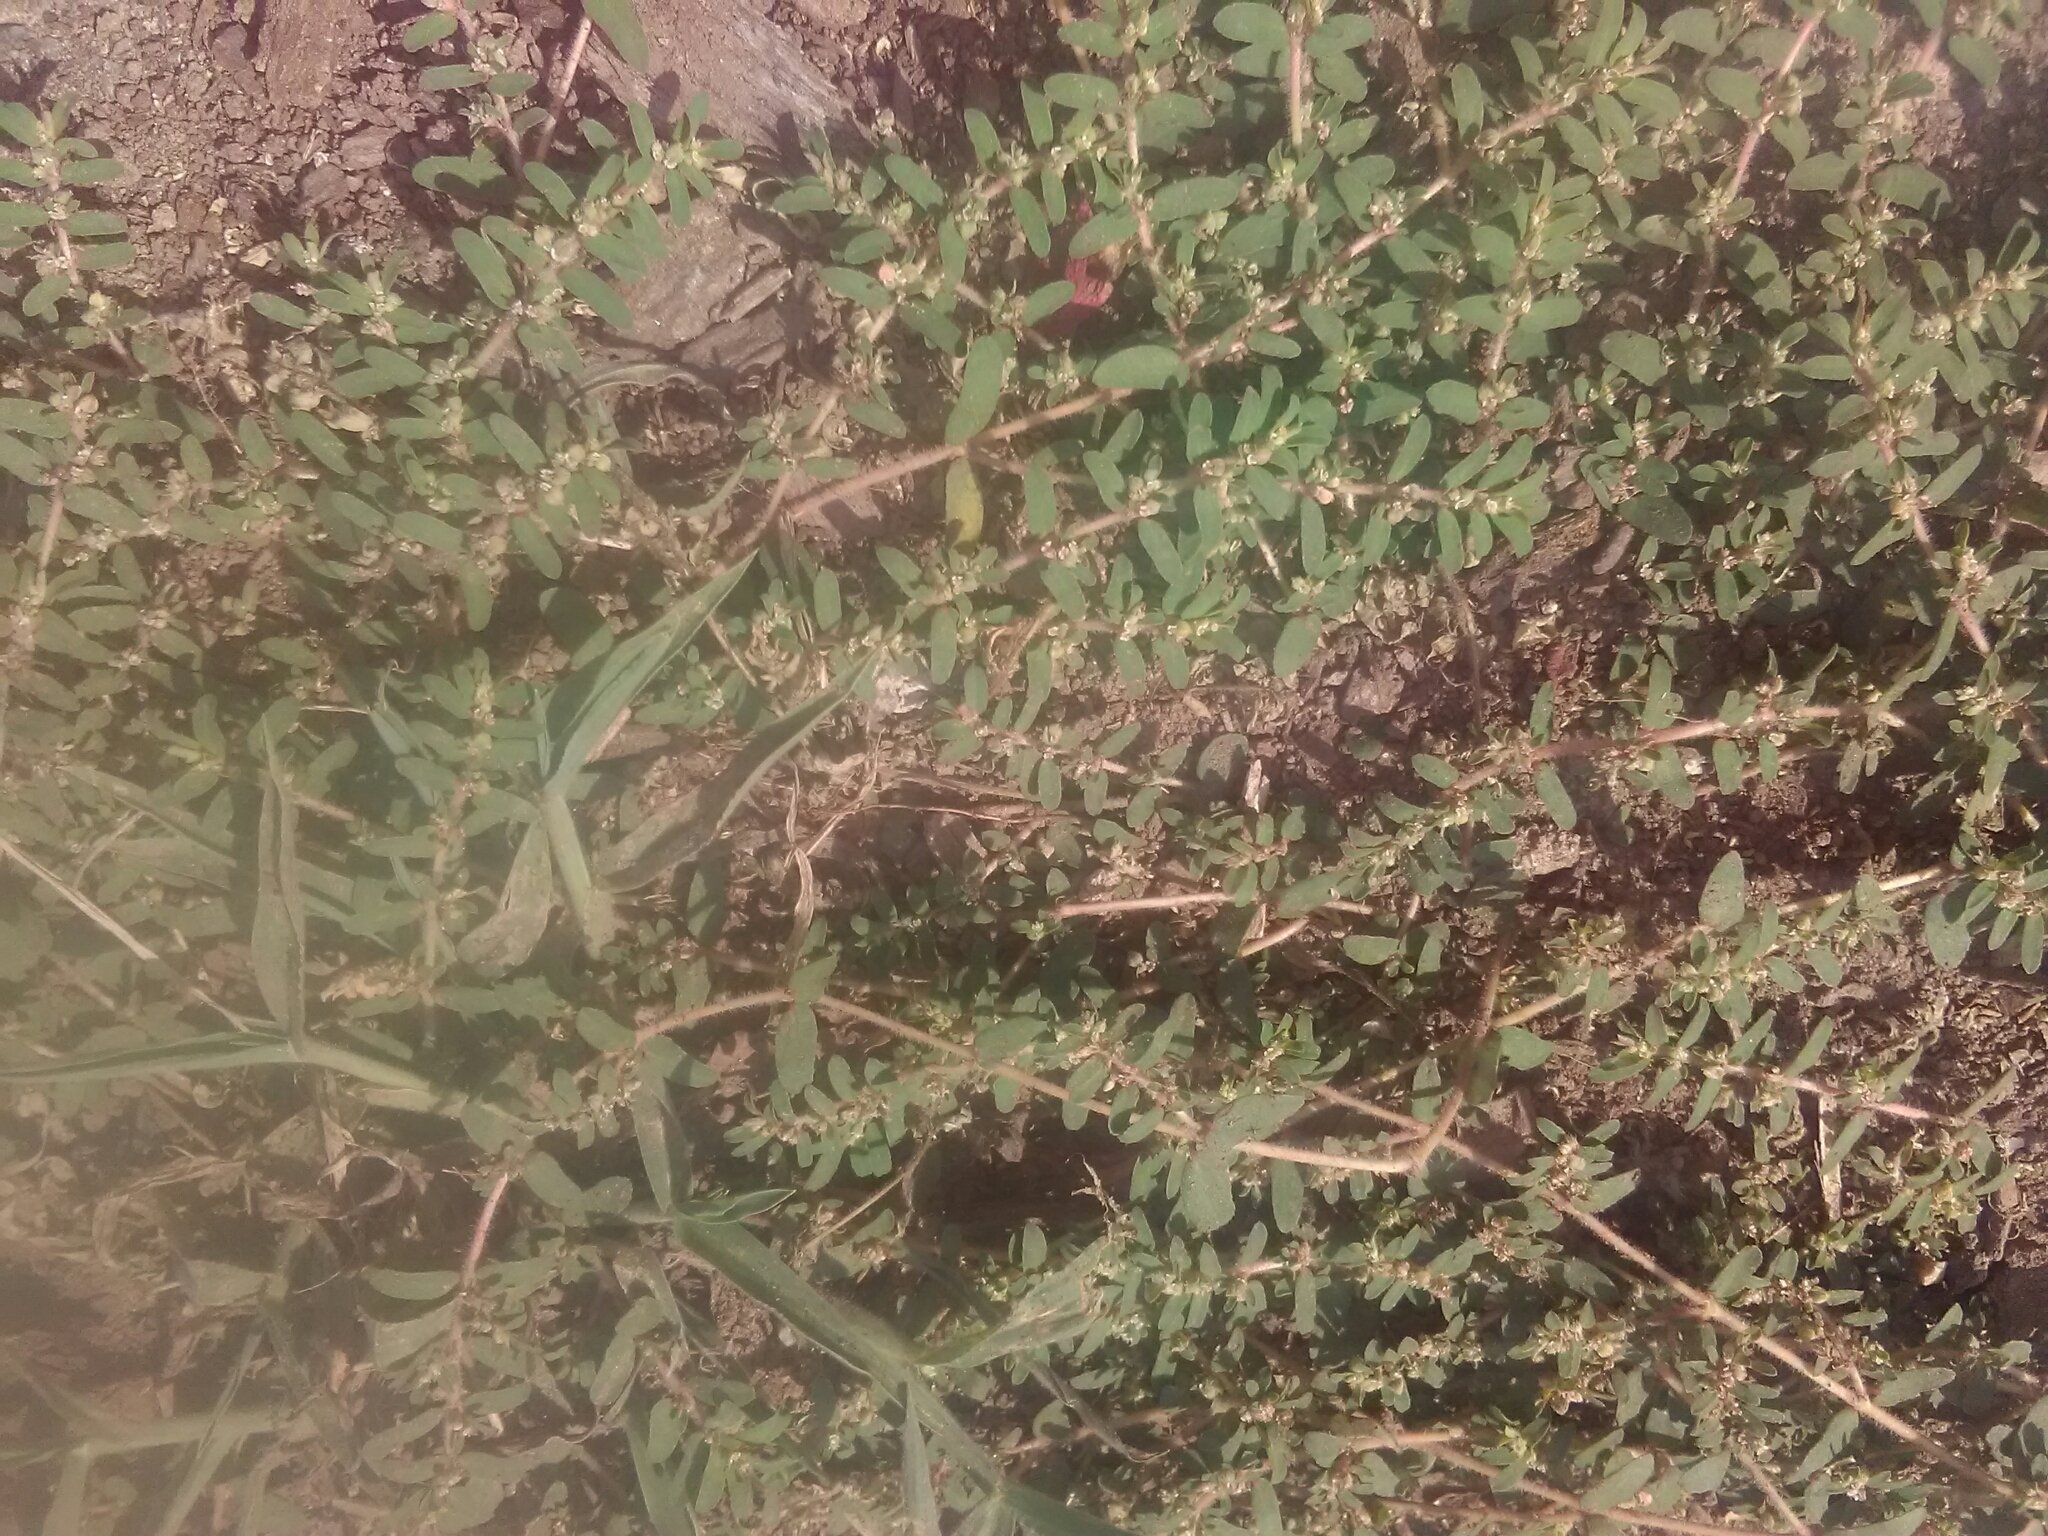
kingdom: Plantae
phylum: Tracheophyta
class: Magnoliopsida
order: Malpighiales
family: Euphorbiaceae
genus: Euphorbia
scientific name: Euphorbia maculata
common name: Spotted spurge
